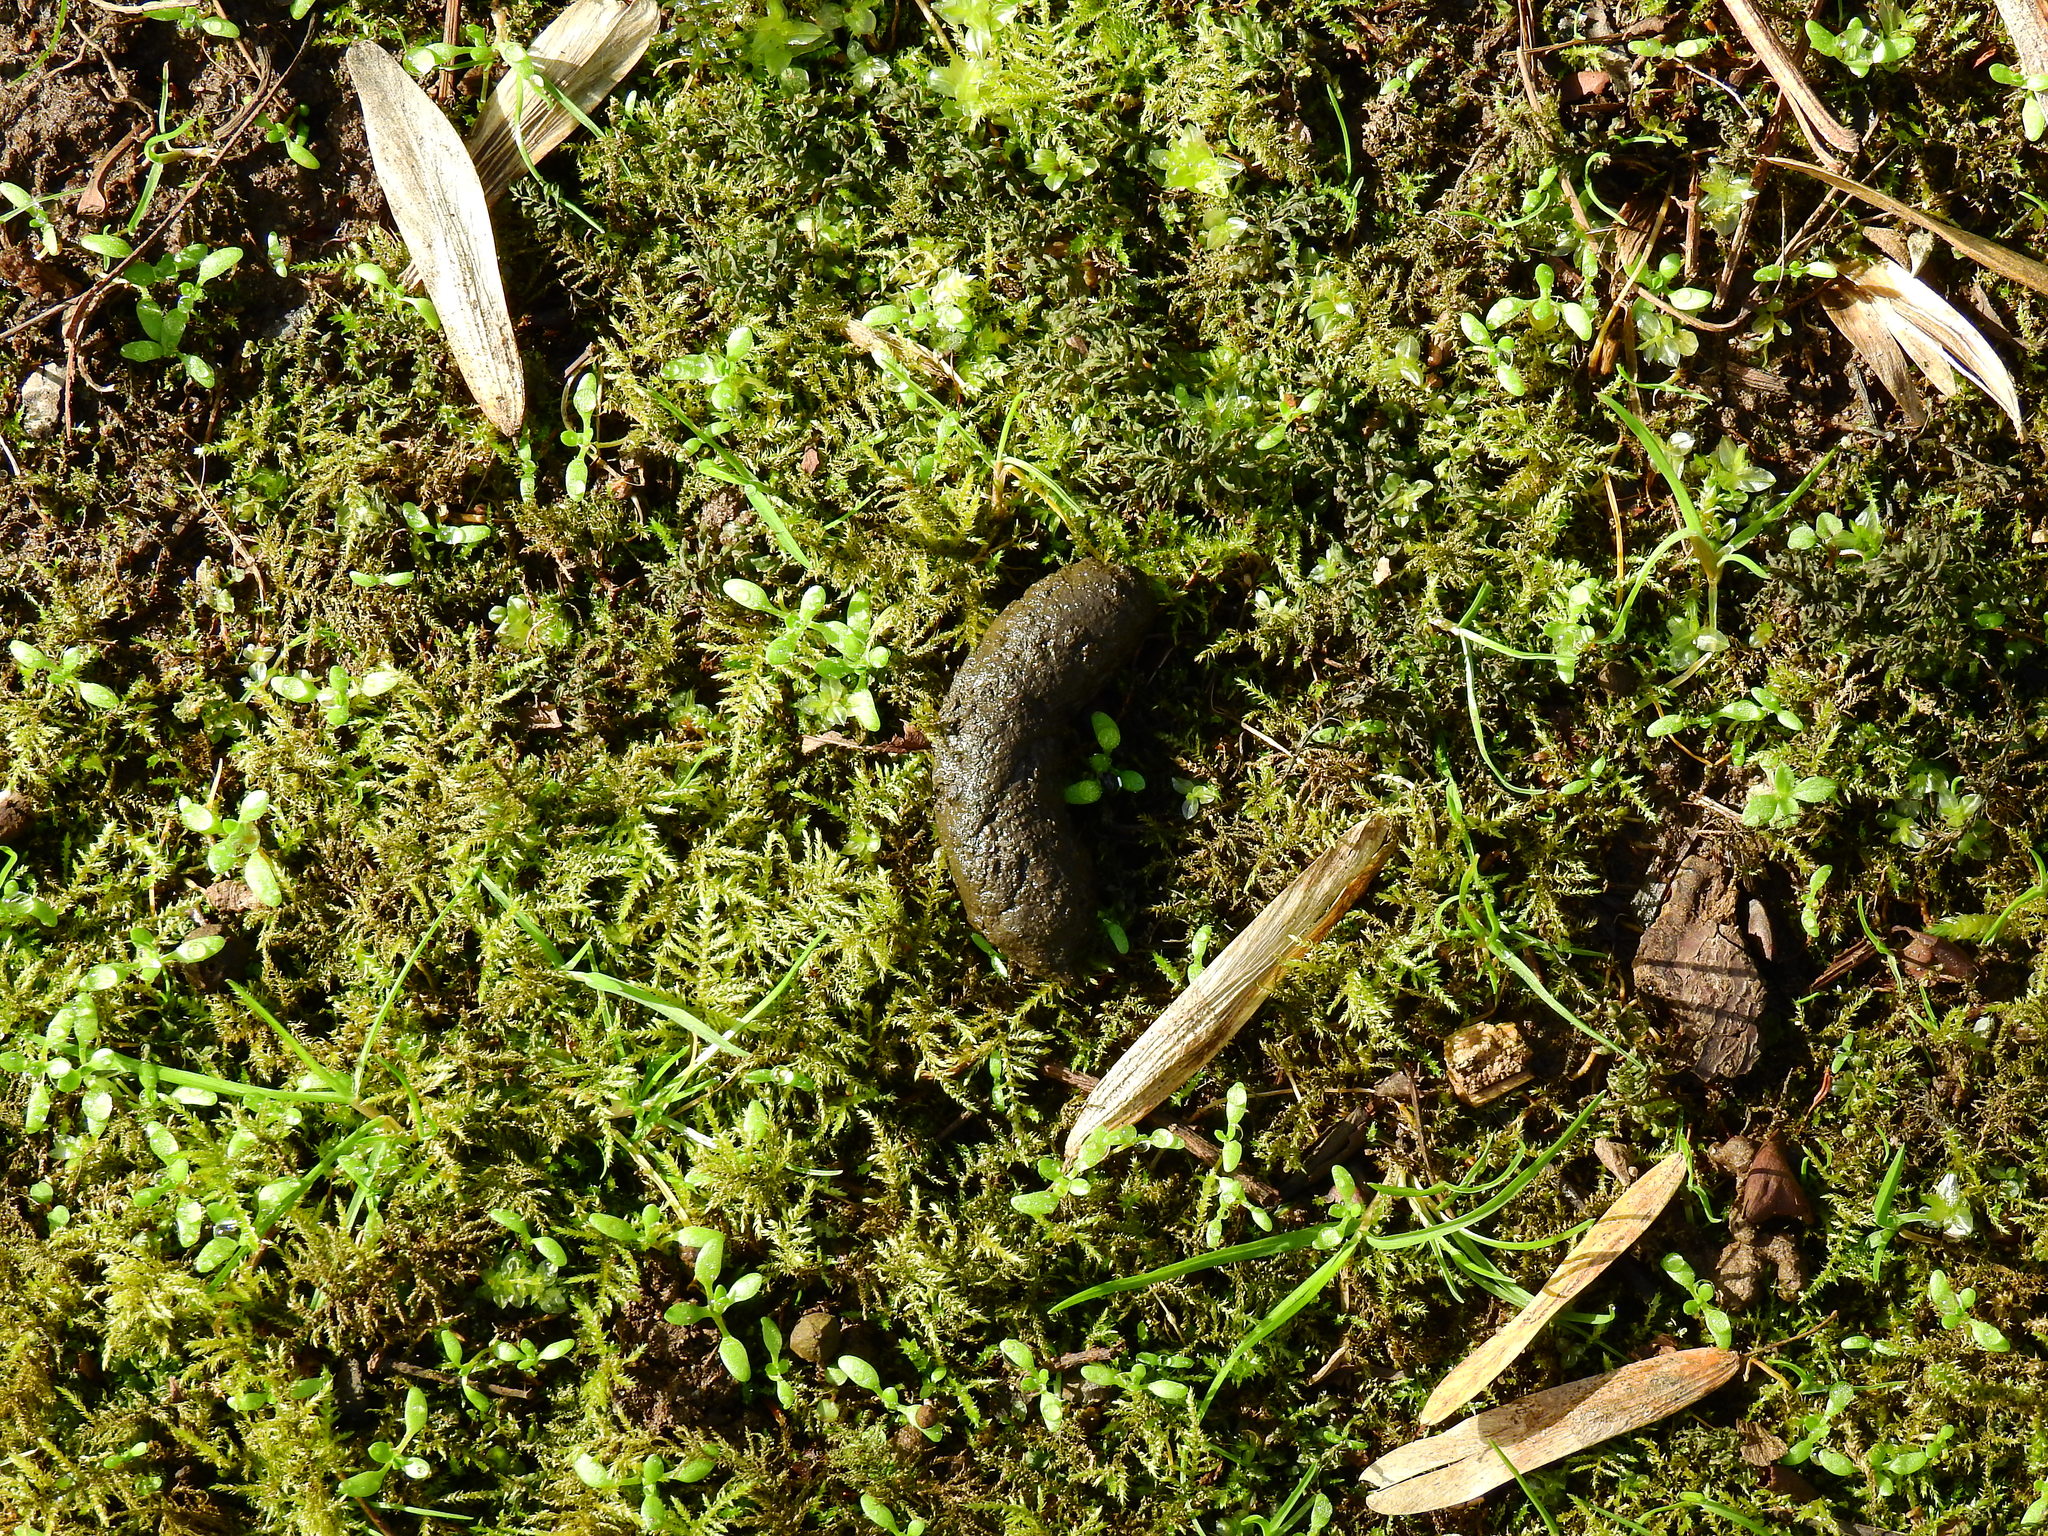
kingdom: Animalia
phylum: Chordata
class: Mammalia
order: Erinaceomorpha
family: Erinaceidae
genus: Erinaceus
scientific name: Erinaceus europaeus
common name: West european hedgehog
